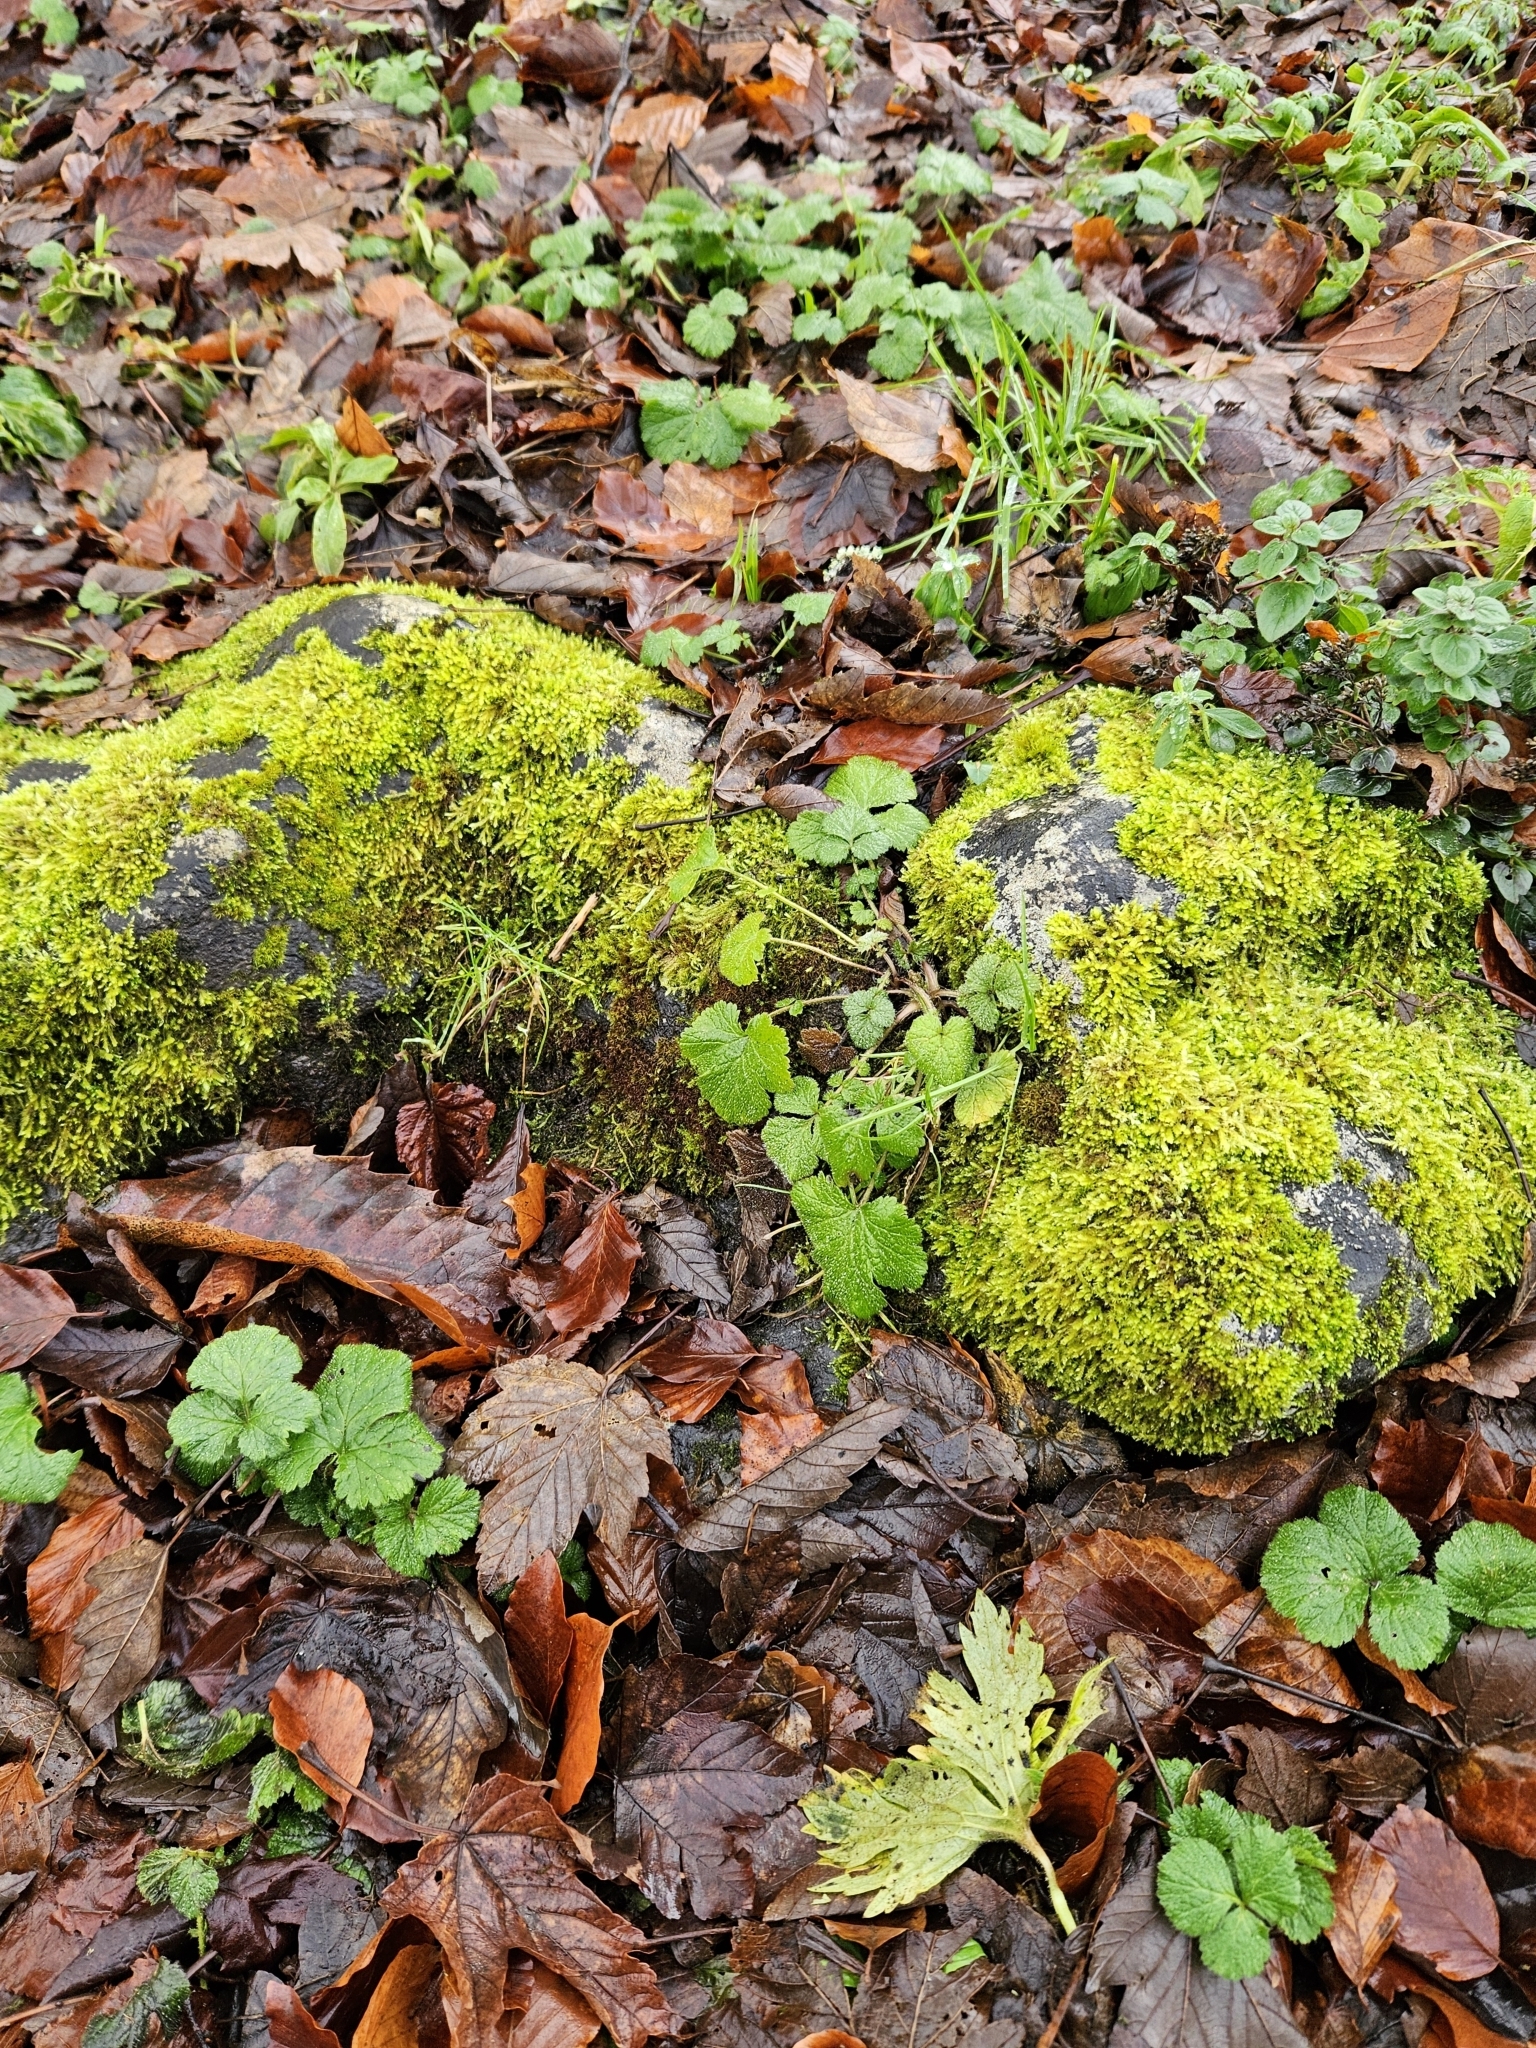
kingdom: Plantae
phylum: Bryophyta
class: Bryopsida
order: Hypnales
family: Brachytheciaceae
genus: Rhynchostegium
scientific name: Rhynchostegium confertum
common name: Clustered feather-moss
